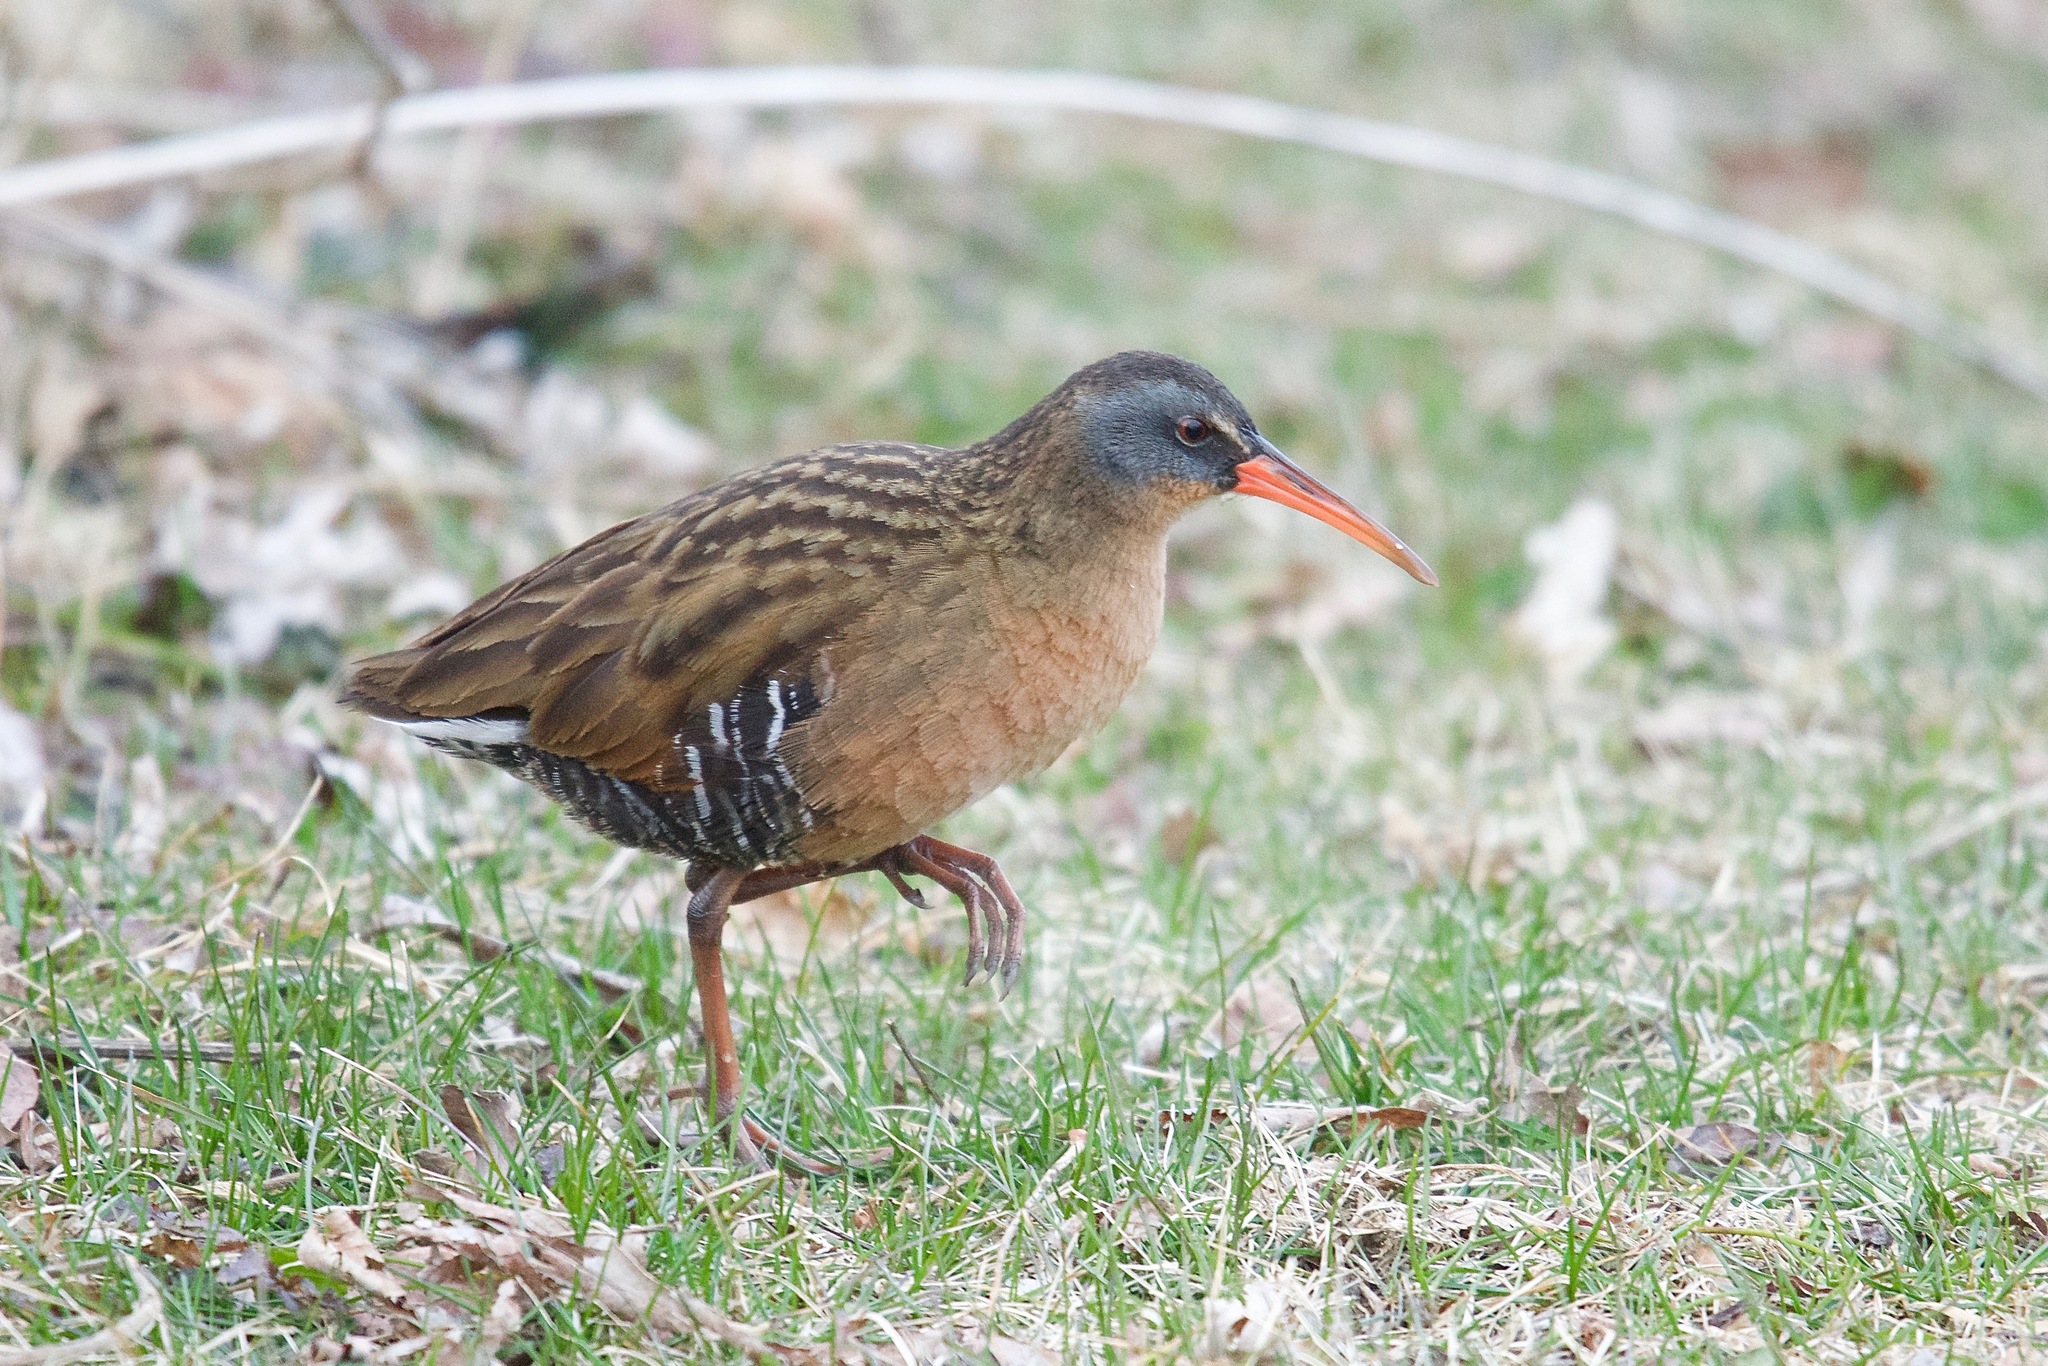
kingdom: Animalia
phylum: Chordata
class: Aves
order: Gruiformes
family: Rallidae
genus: Rallus
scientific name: Rallus limicola
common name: Virginia rail
